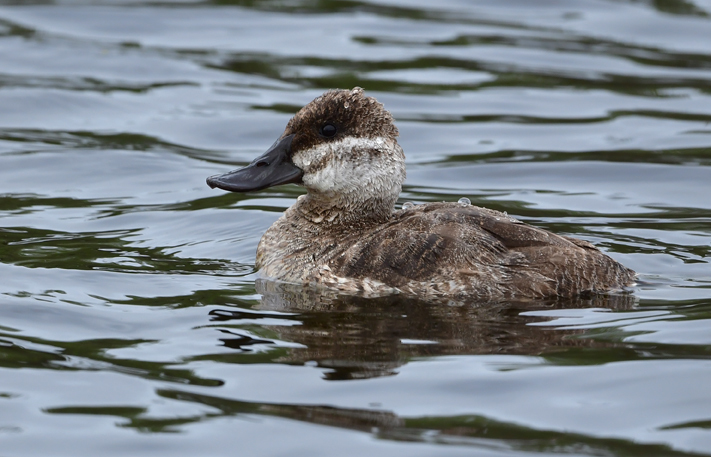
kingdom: Animalia
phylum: Chordata
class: Aves
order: Anseriformes
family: Anatidae
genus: Oxyura
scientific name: Oxyura jamaicensis
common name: Ruddy duck
